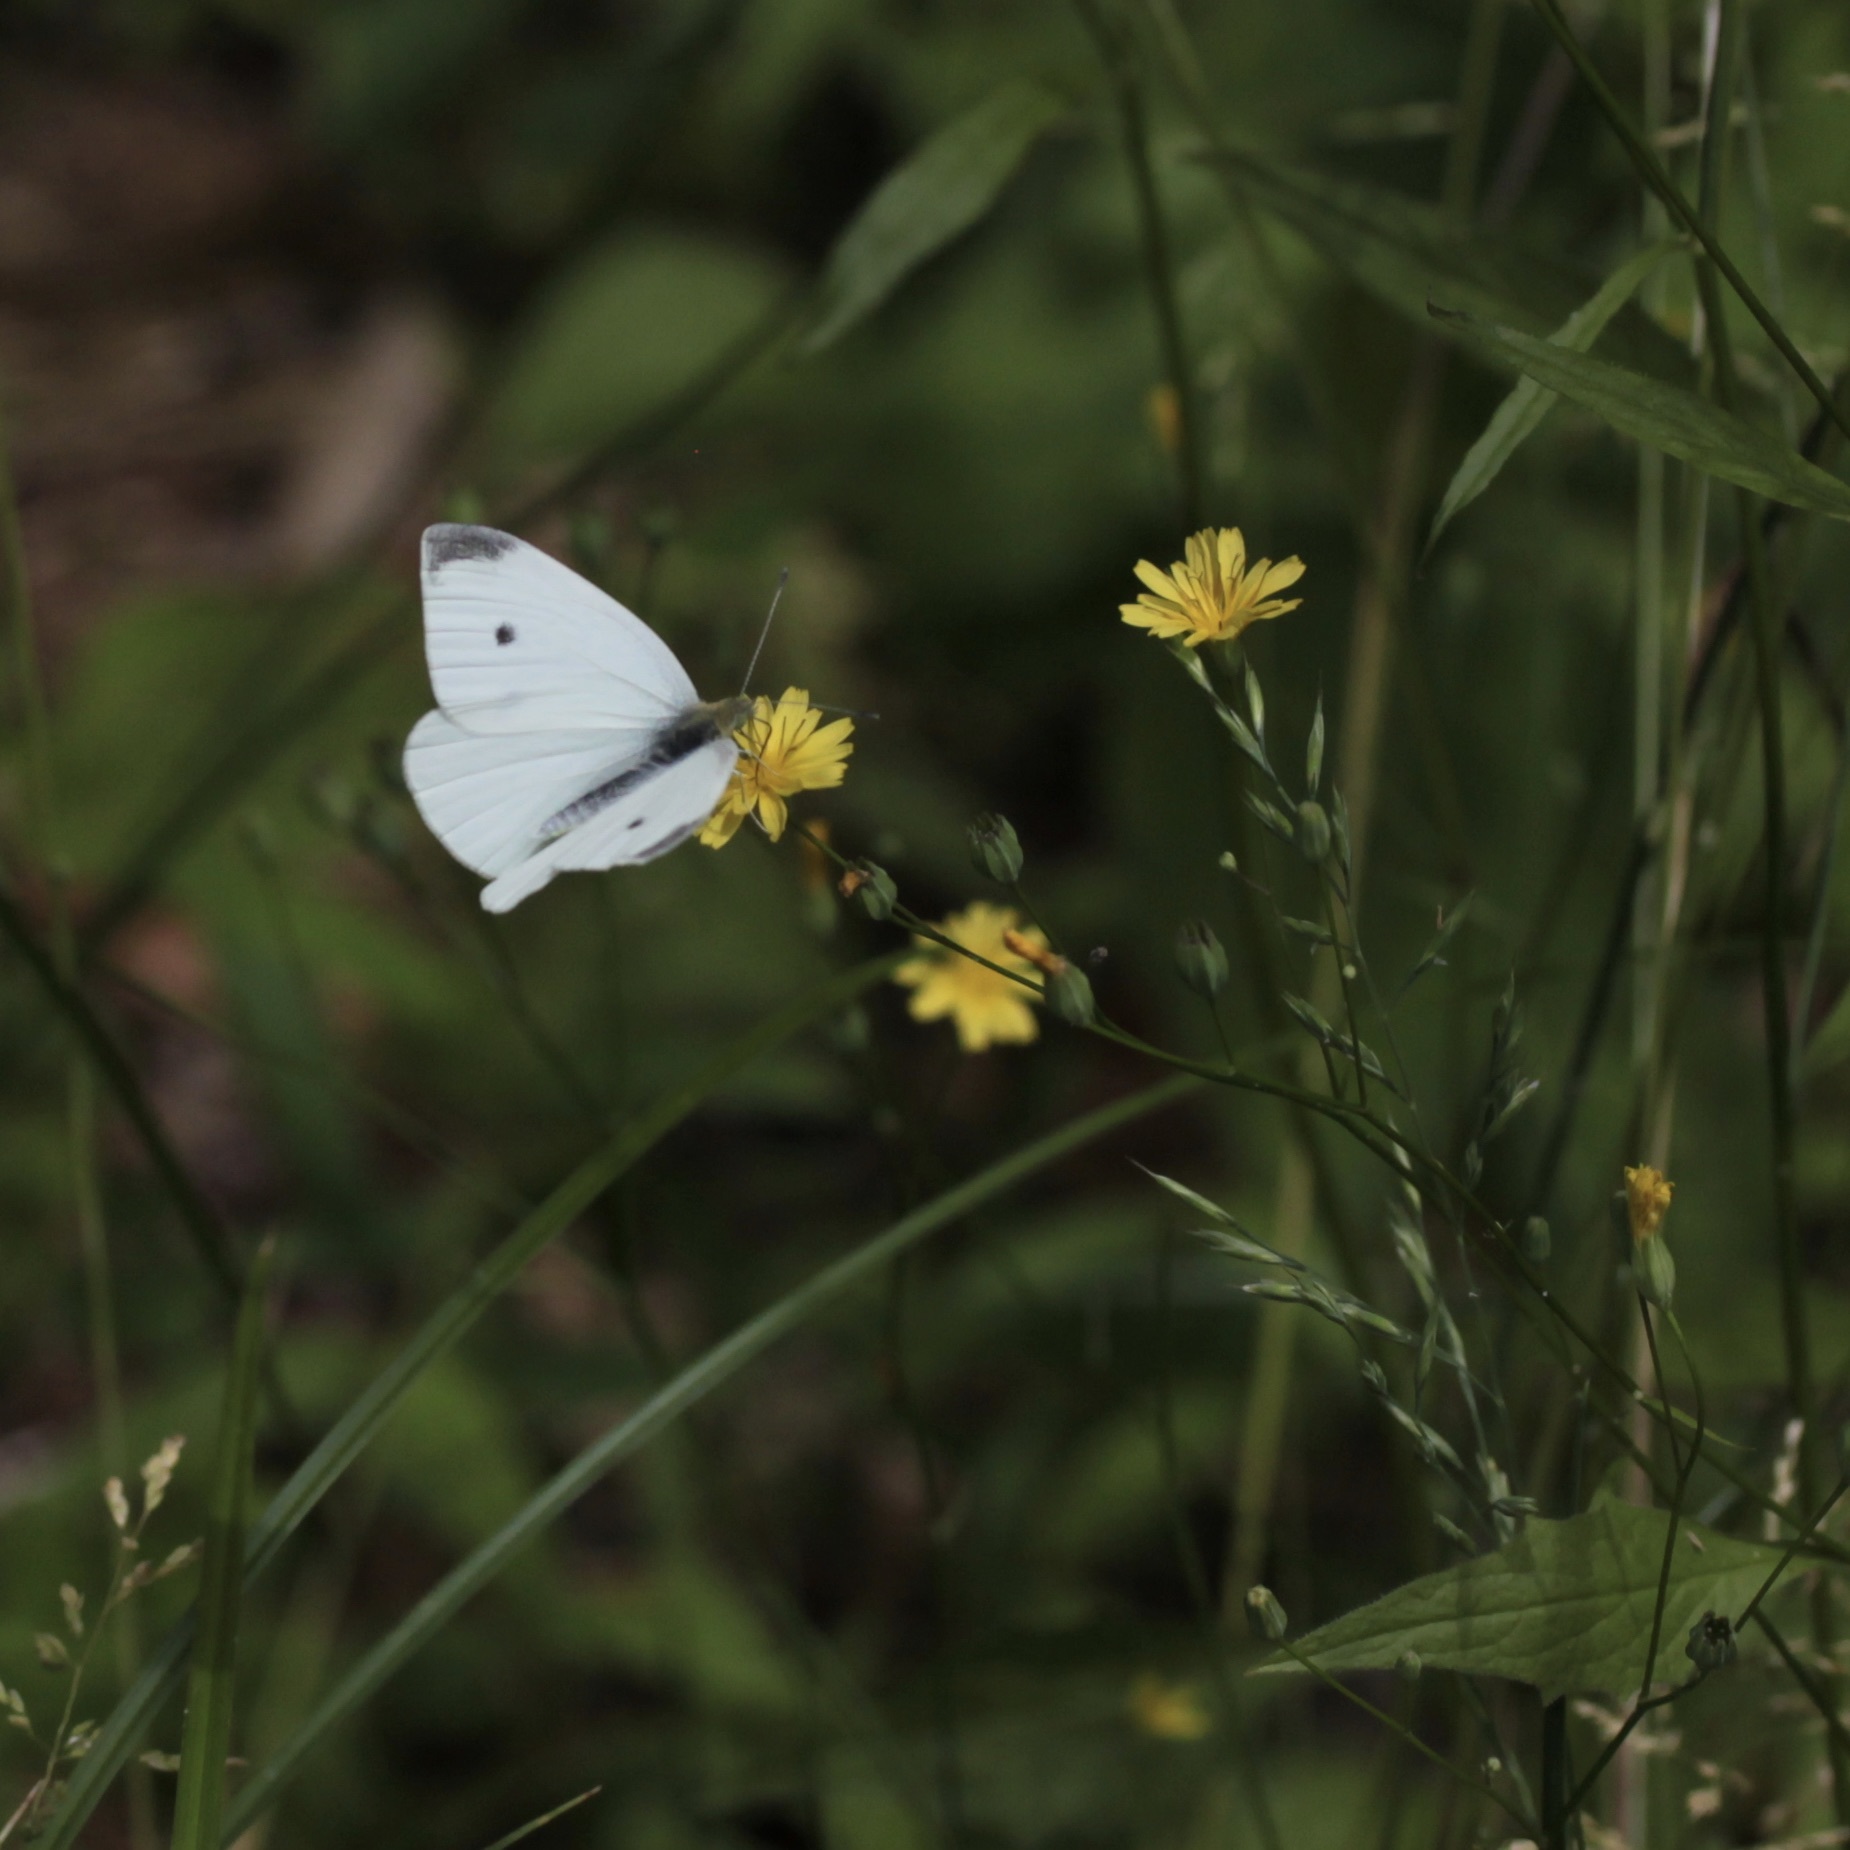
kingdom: Animalia
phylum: Arthropoda
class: Insecta
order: Lepidoptera
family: Pieridae
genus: Pieris
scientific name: Pieris rapae
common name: Small white
